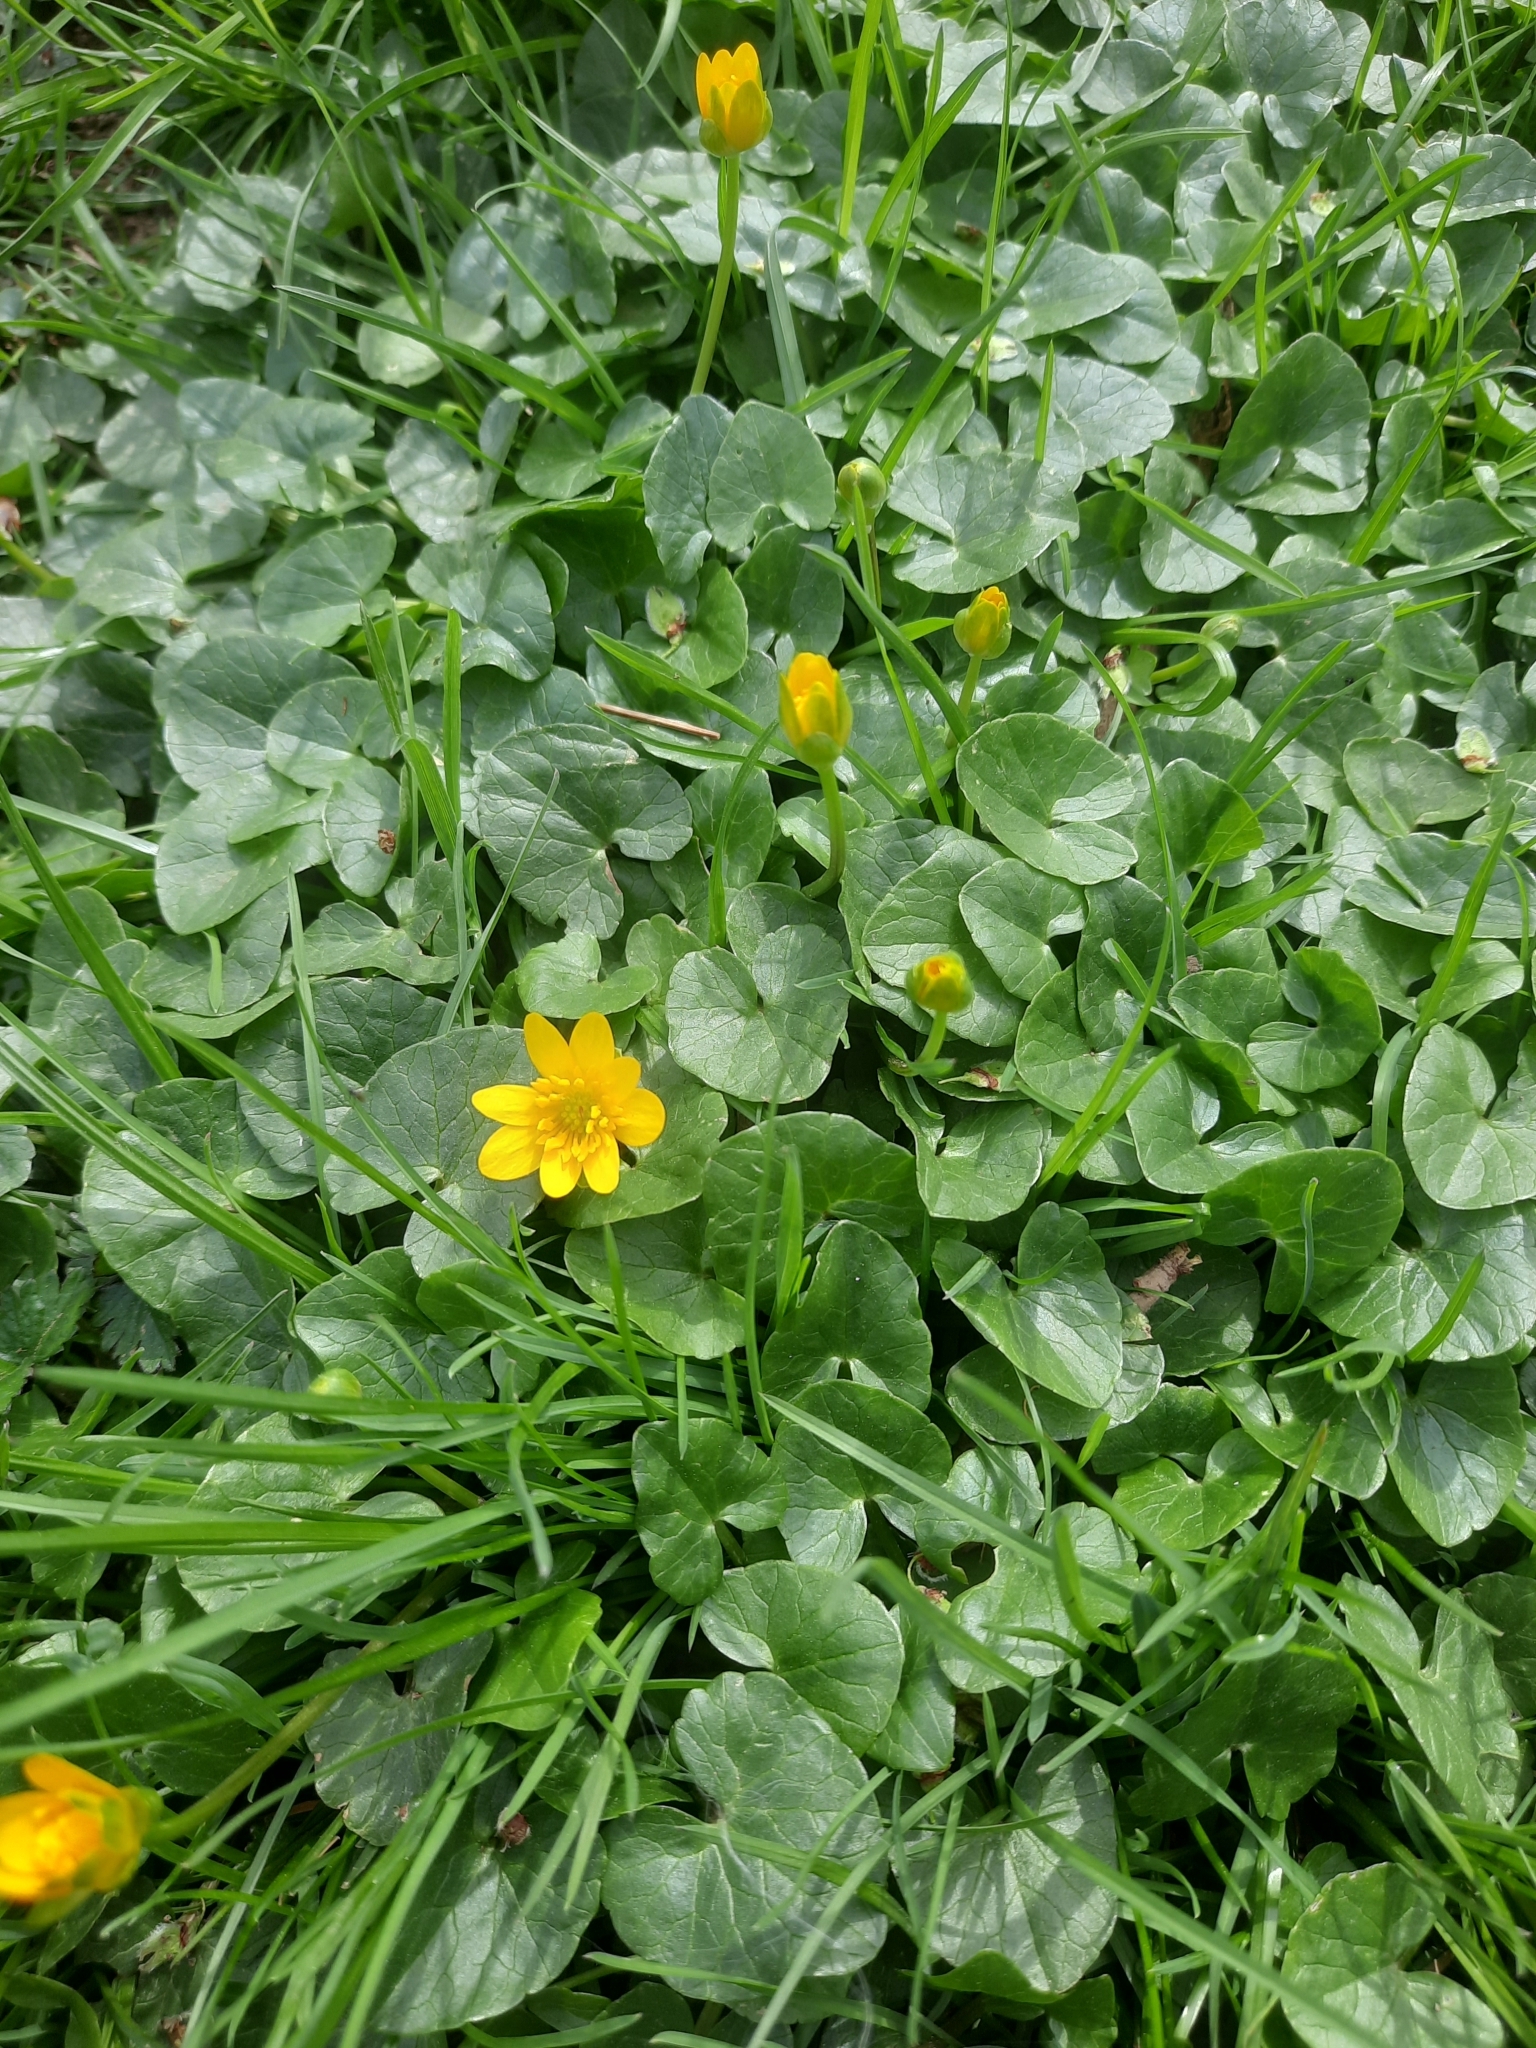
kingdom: Plantae
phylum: Tracheophyta
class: Magnoliopsida
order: Ranunculales
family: Ranunculaceae
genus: Ficaria
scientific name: Ficaria verna
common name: Lesser celandine
